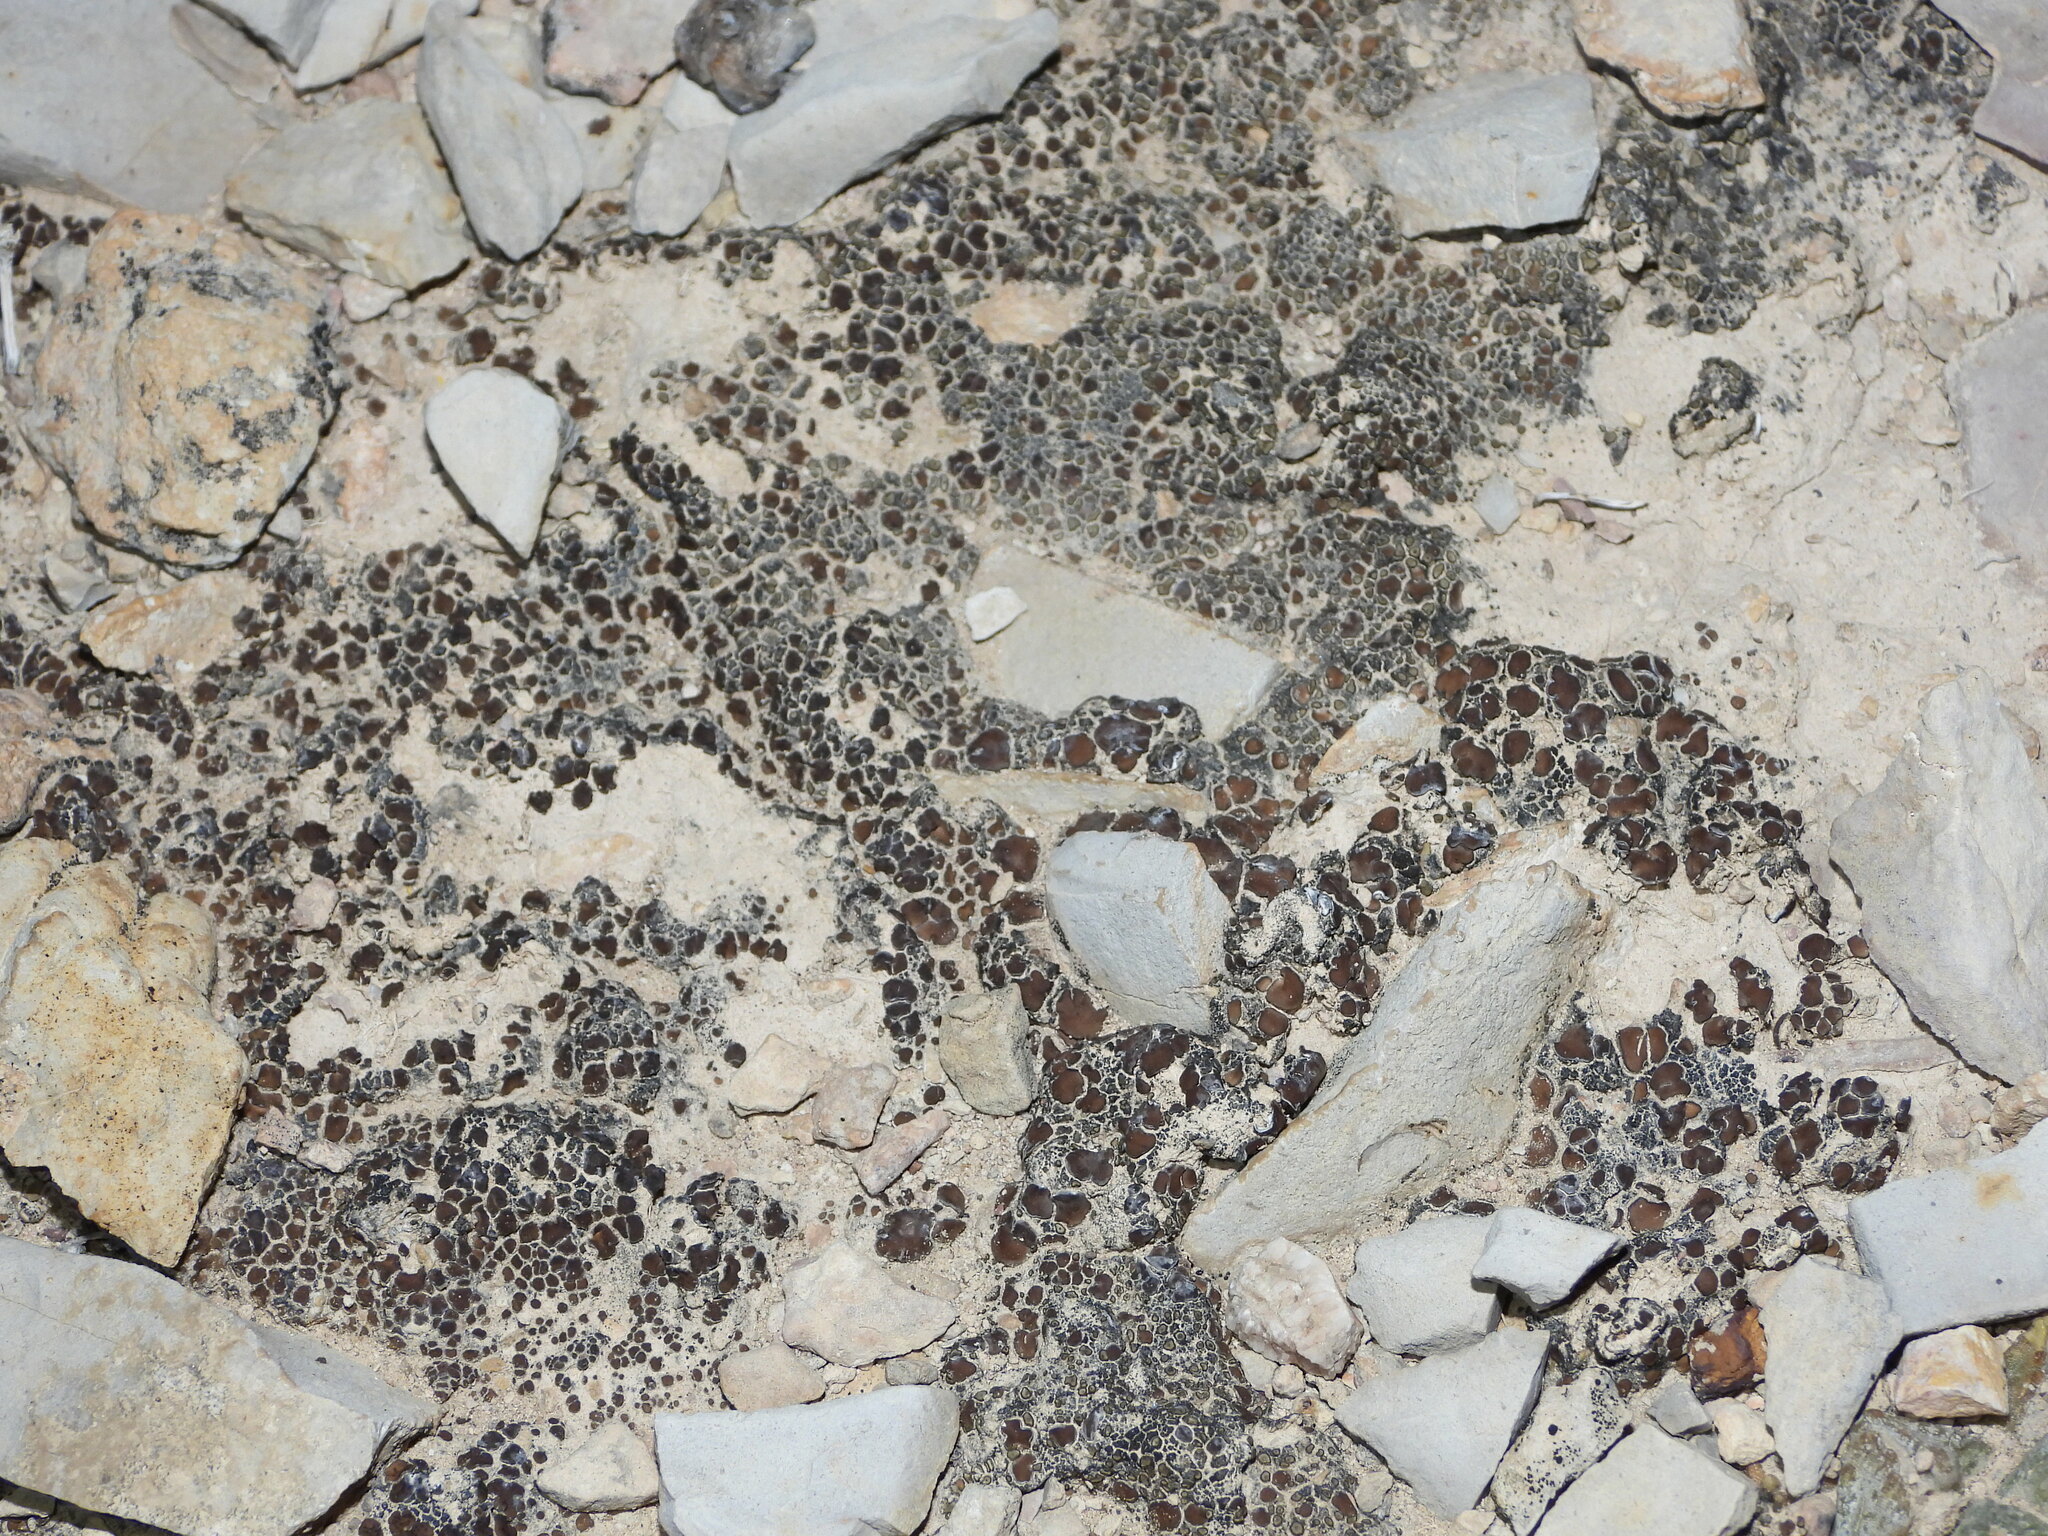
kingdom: Fungi
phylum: Ascomycota
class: Eurotiomycetes
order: Verrucariales
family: Verrucariaceae
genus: Clavascidium
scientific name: Clavascidium lacinulatum
